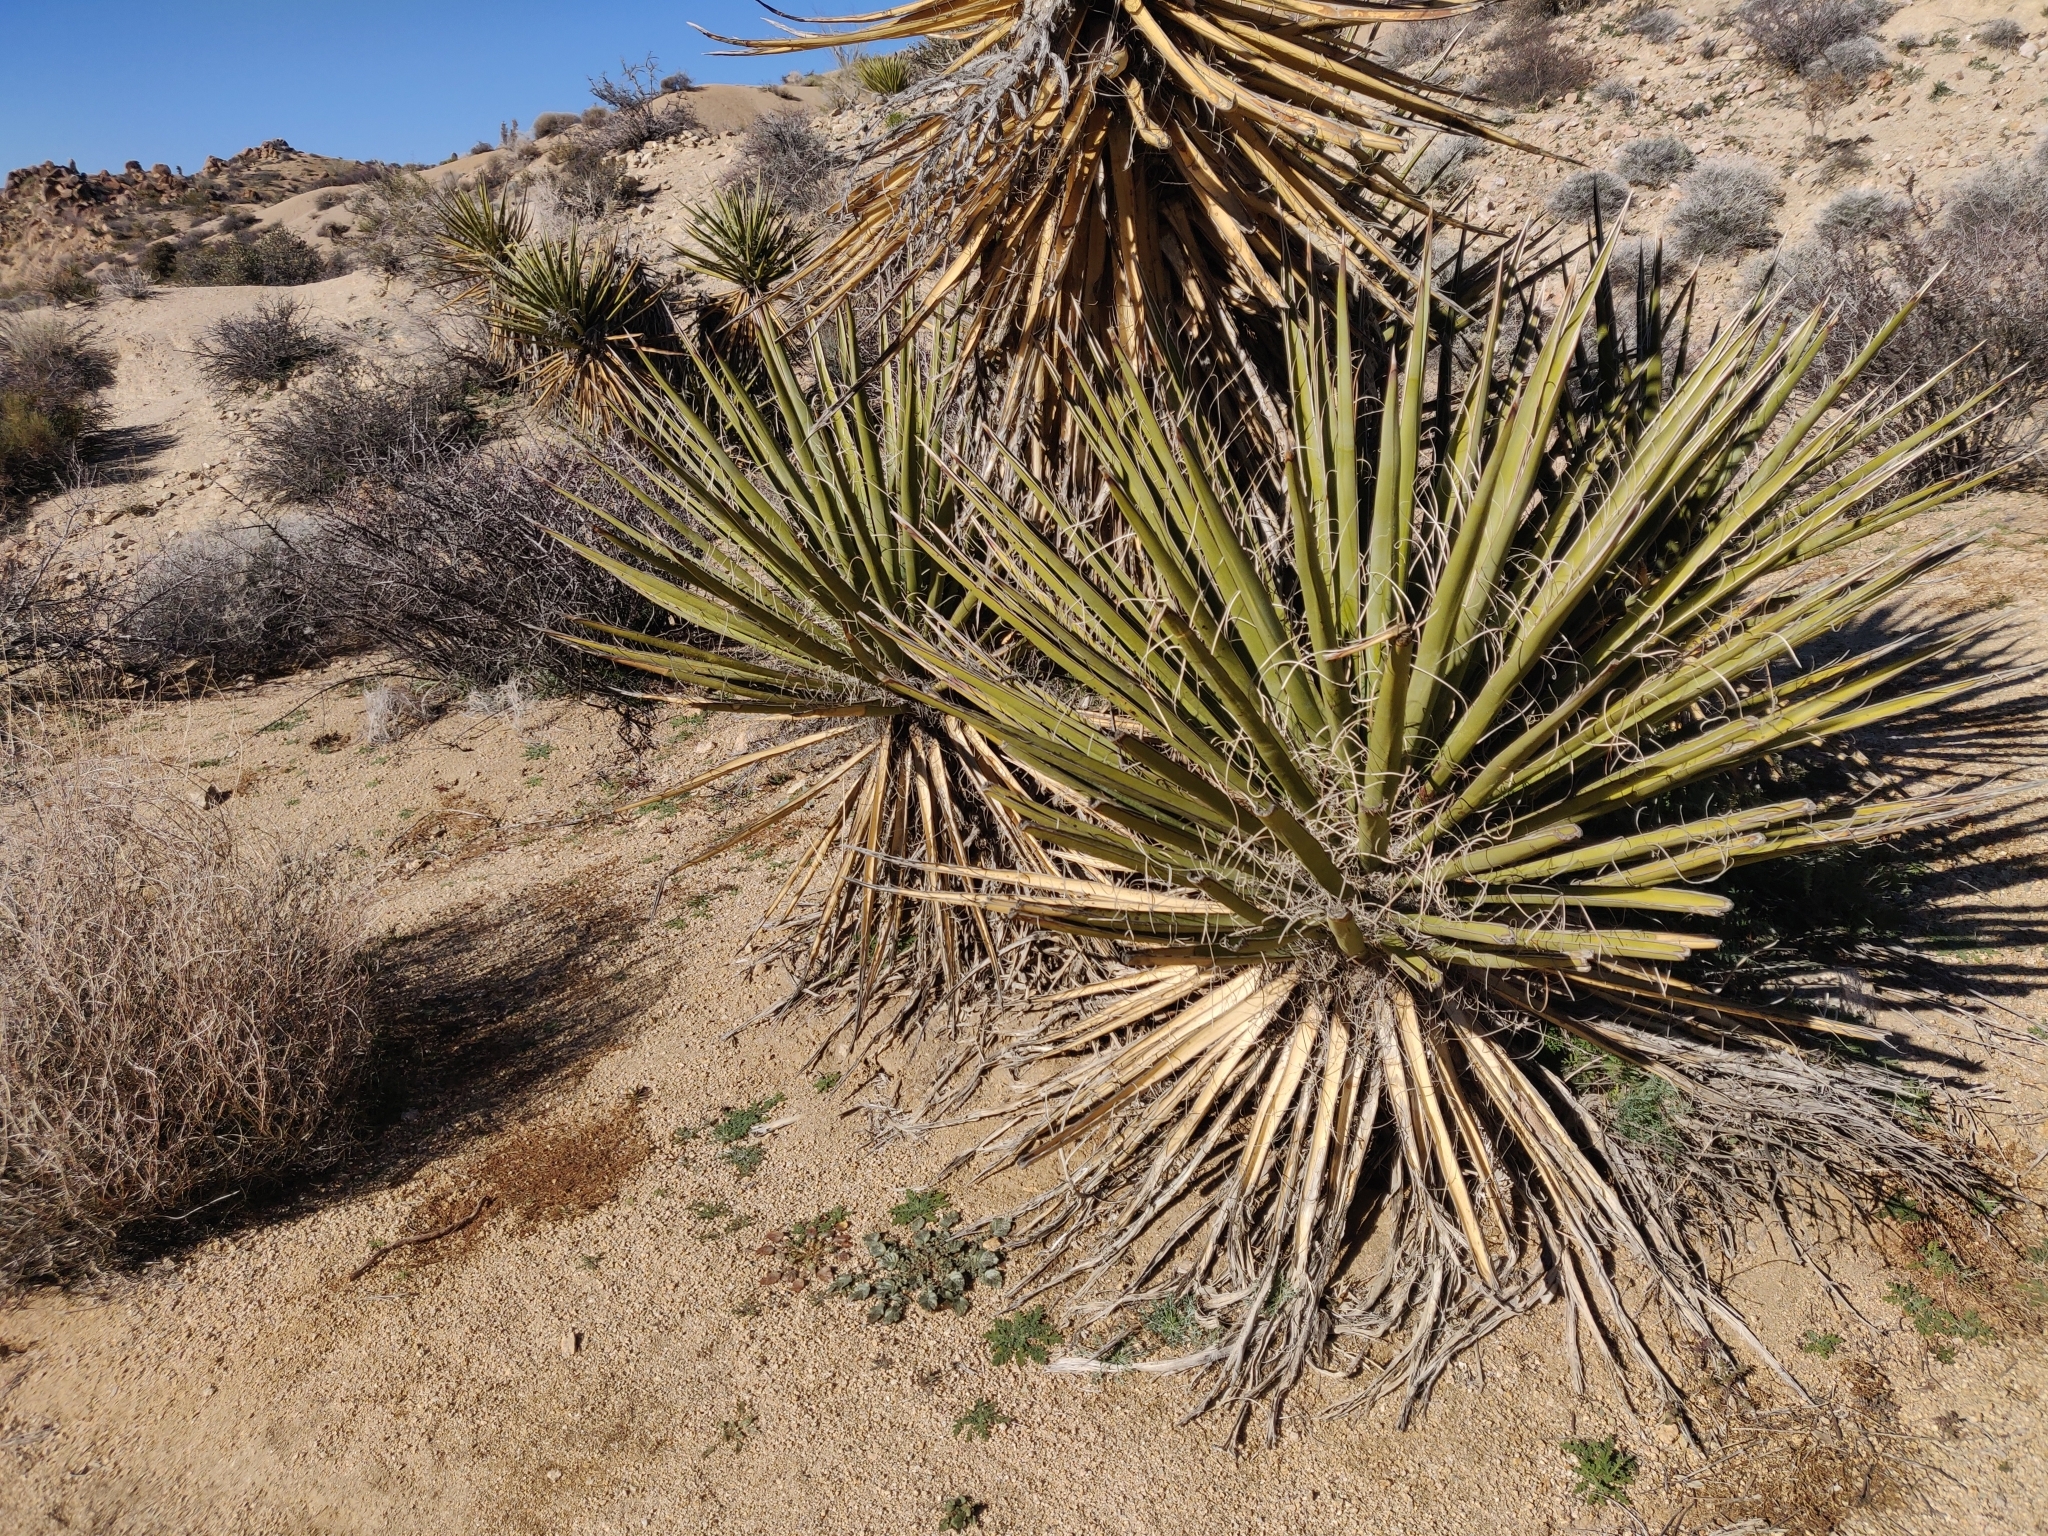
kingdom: Plantae
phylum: Tracheophyta
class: Liliopsida
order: Asparagales
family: Asparagaceae
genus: Yucca
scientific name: Yucca schidigera
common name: Mojave yucca
